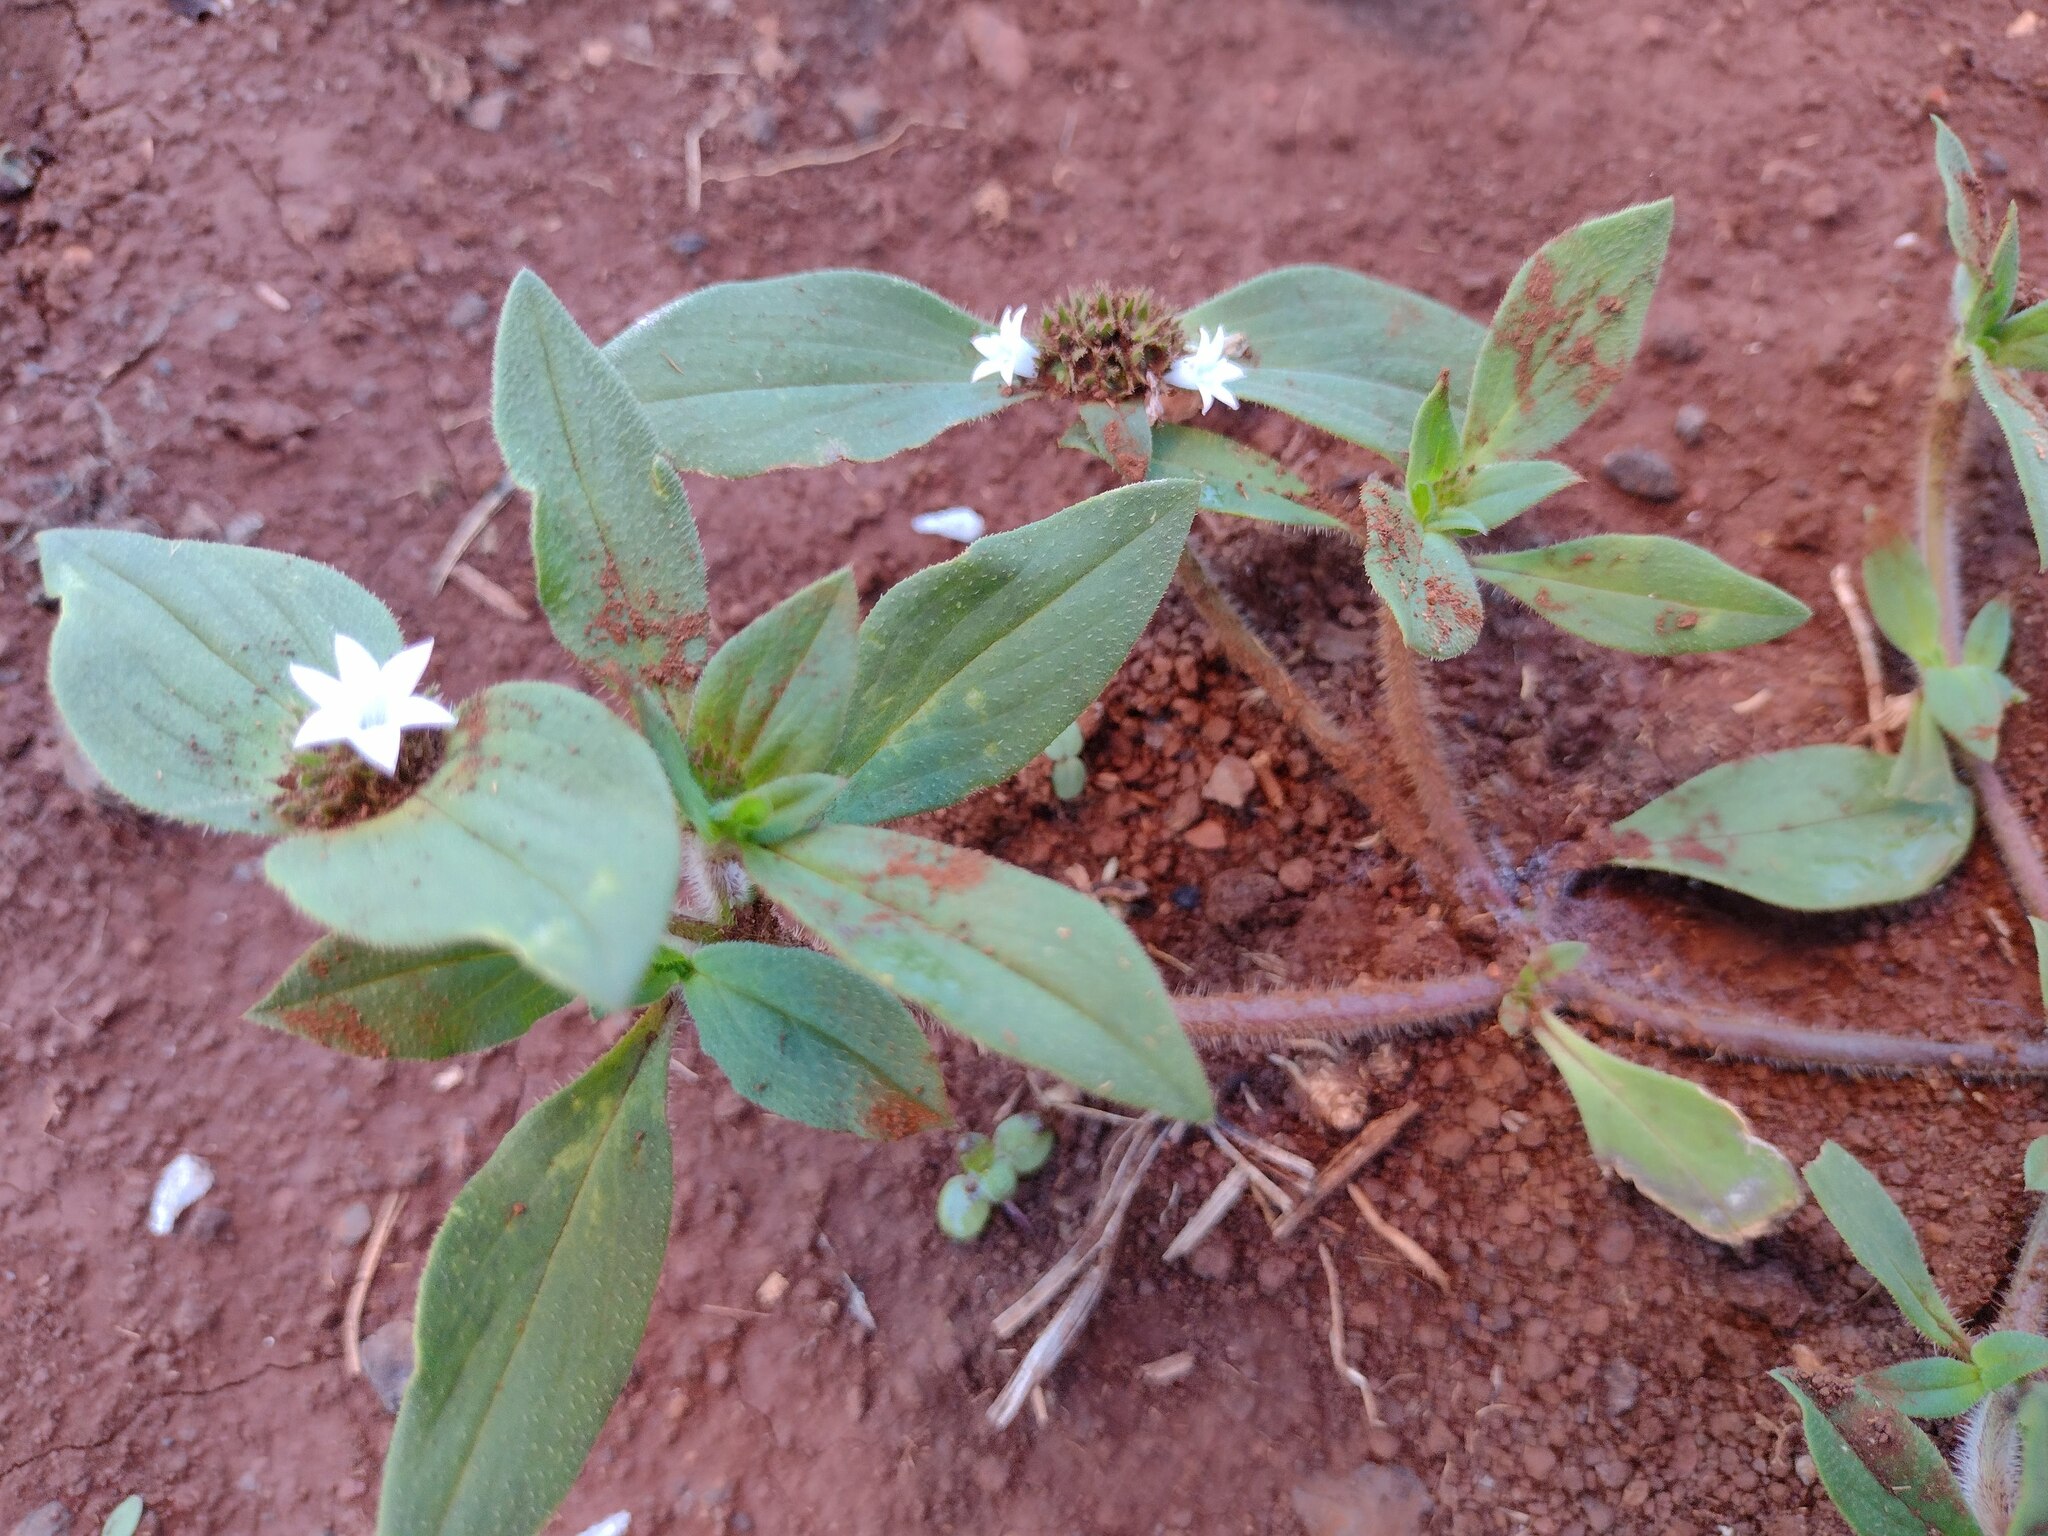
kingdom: Plantae
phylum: Tracheophyta
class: Magnoliopsida
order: Gentianales
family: Rubiaceae
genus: Richardia
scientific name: Richardia scabra
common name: Rough mexican clover
